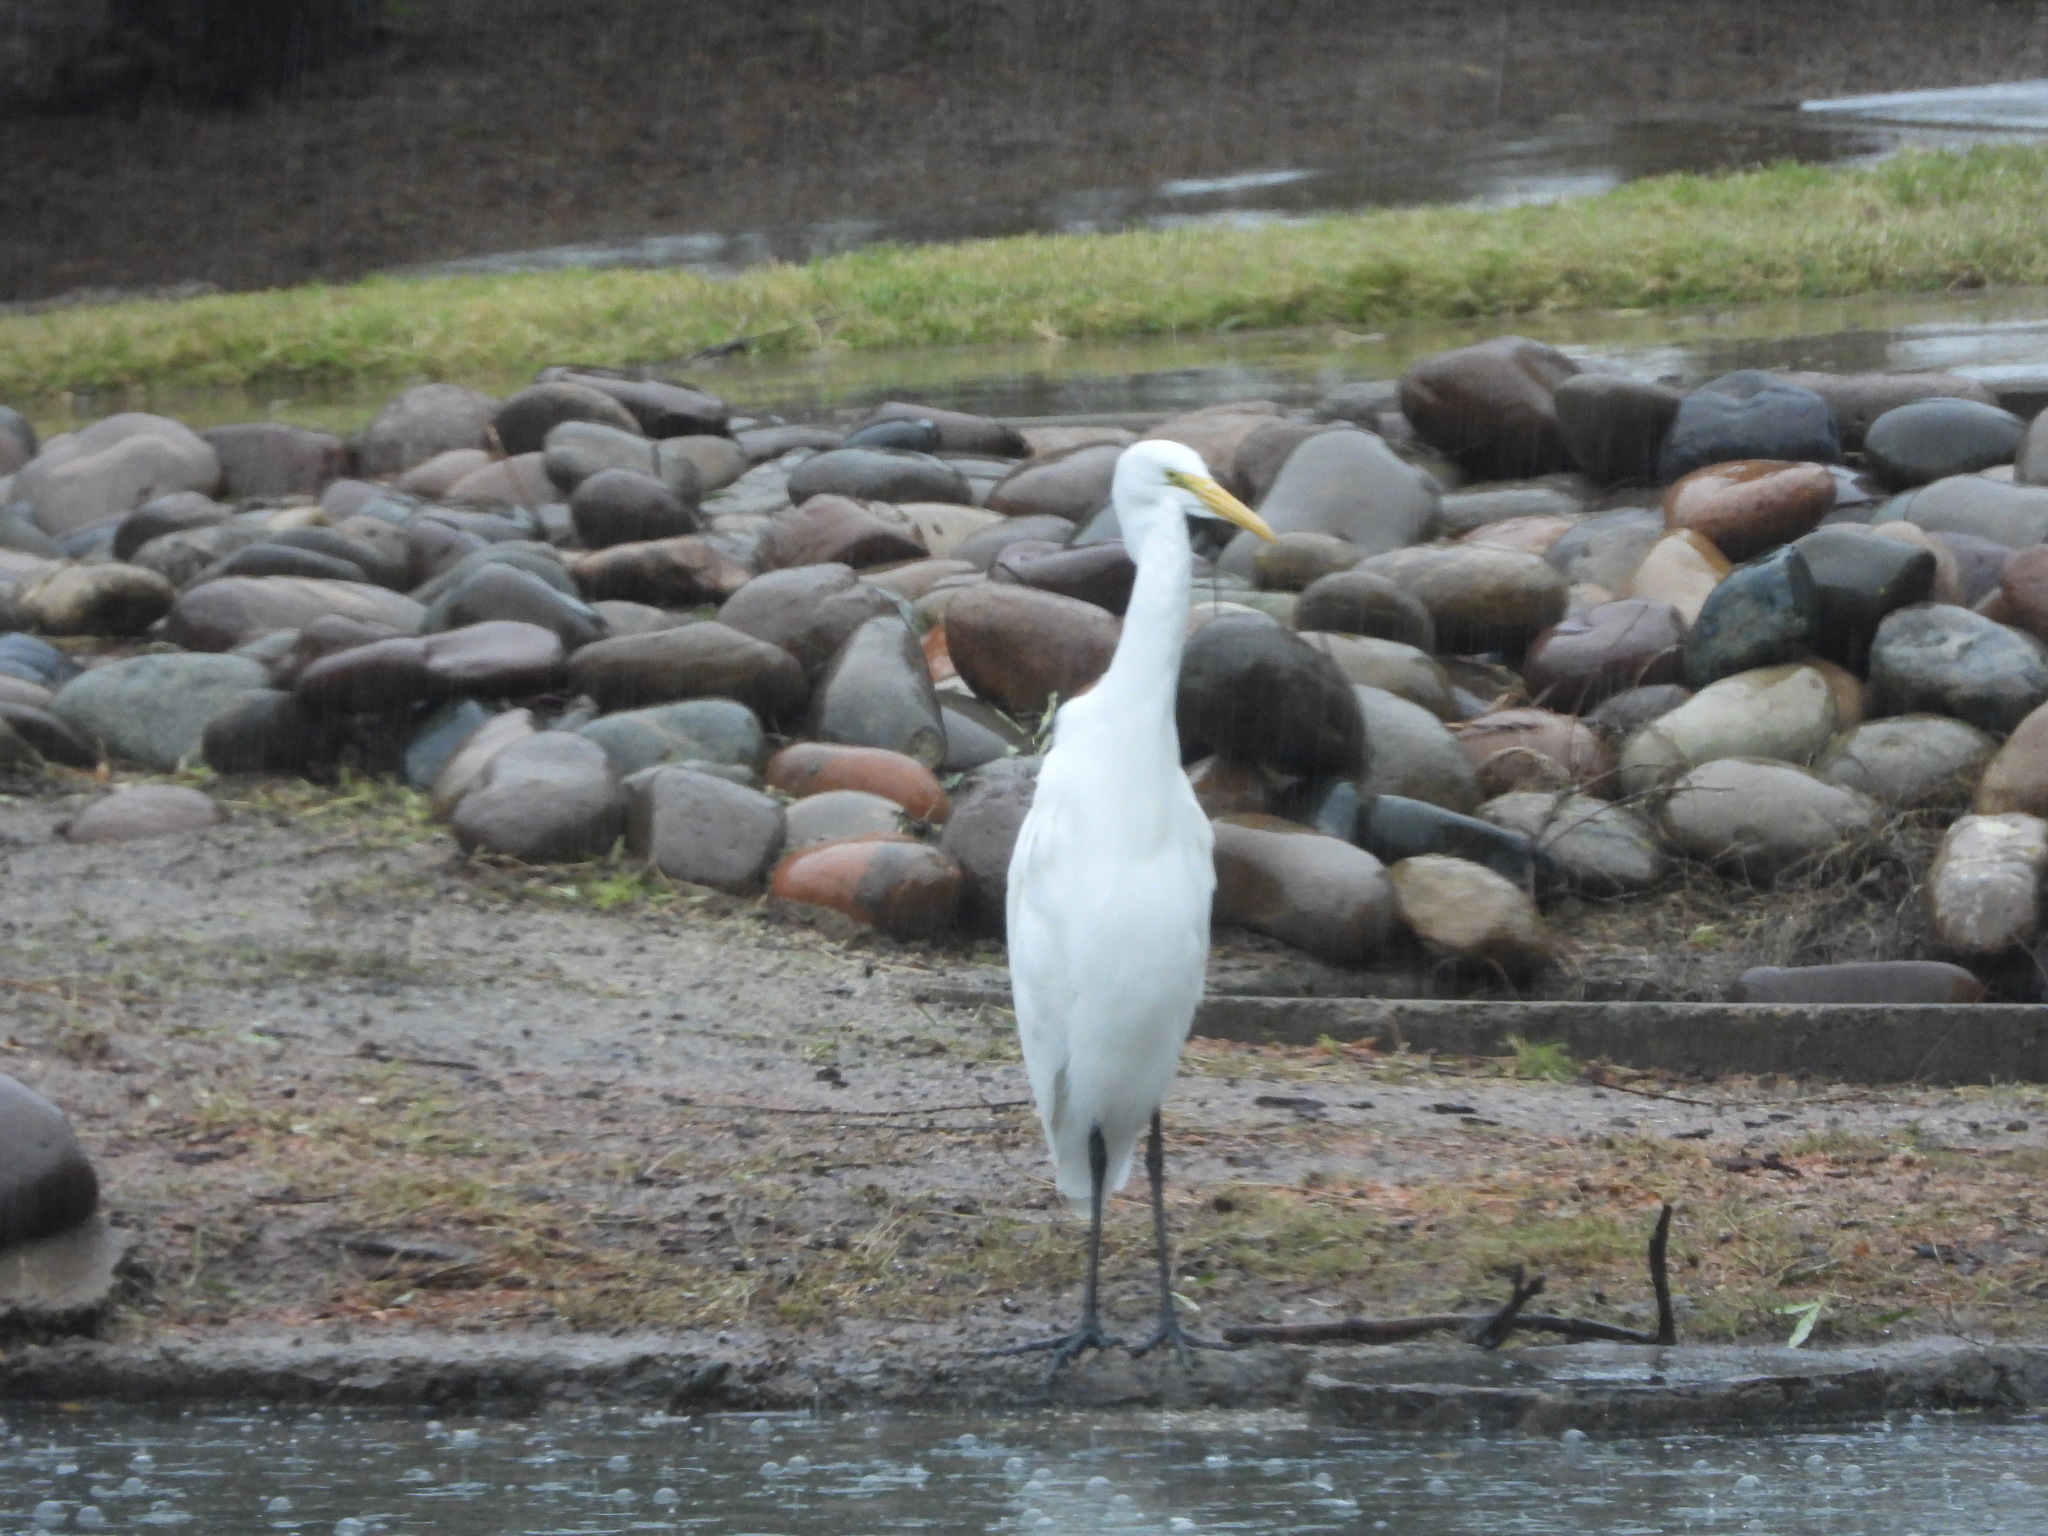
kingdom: Animalia
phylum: Chordata
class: Aves
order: Pelecaniformes
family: Ardeidae
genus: Ardea
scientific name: Ardea alba
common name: Great egret
